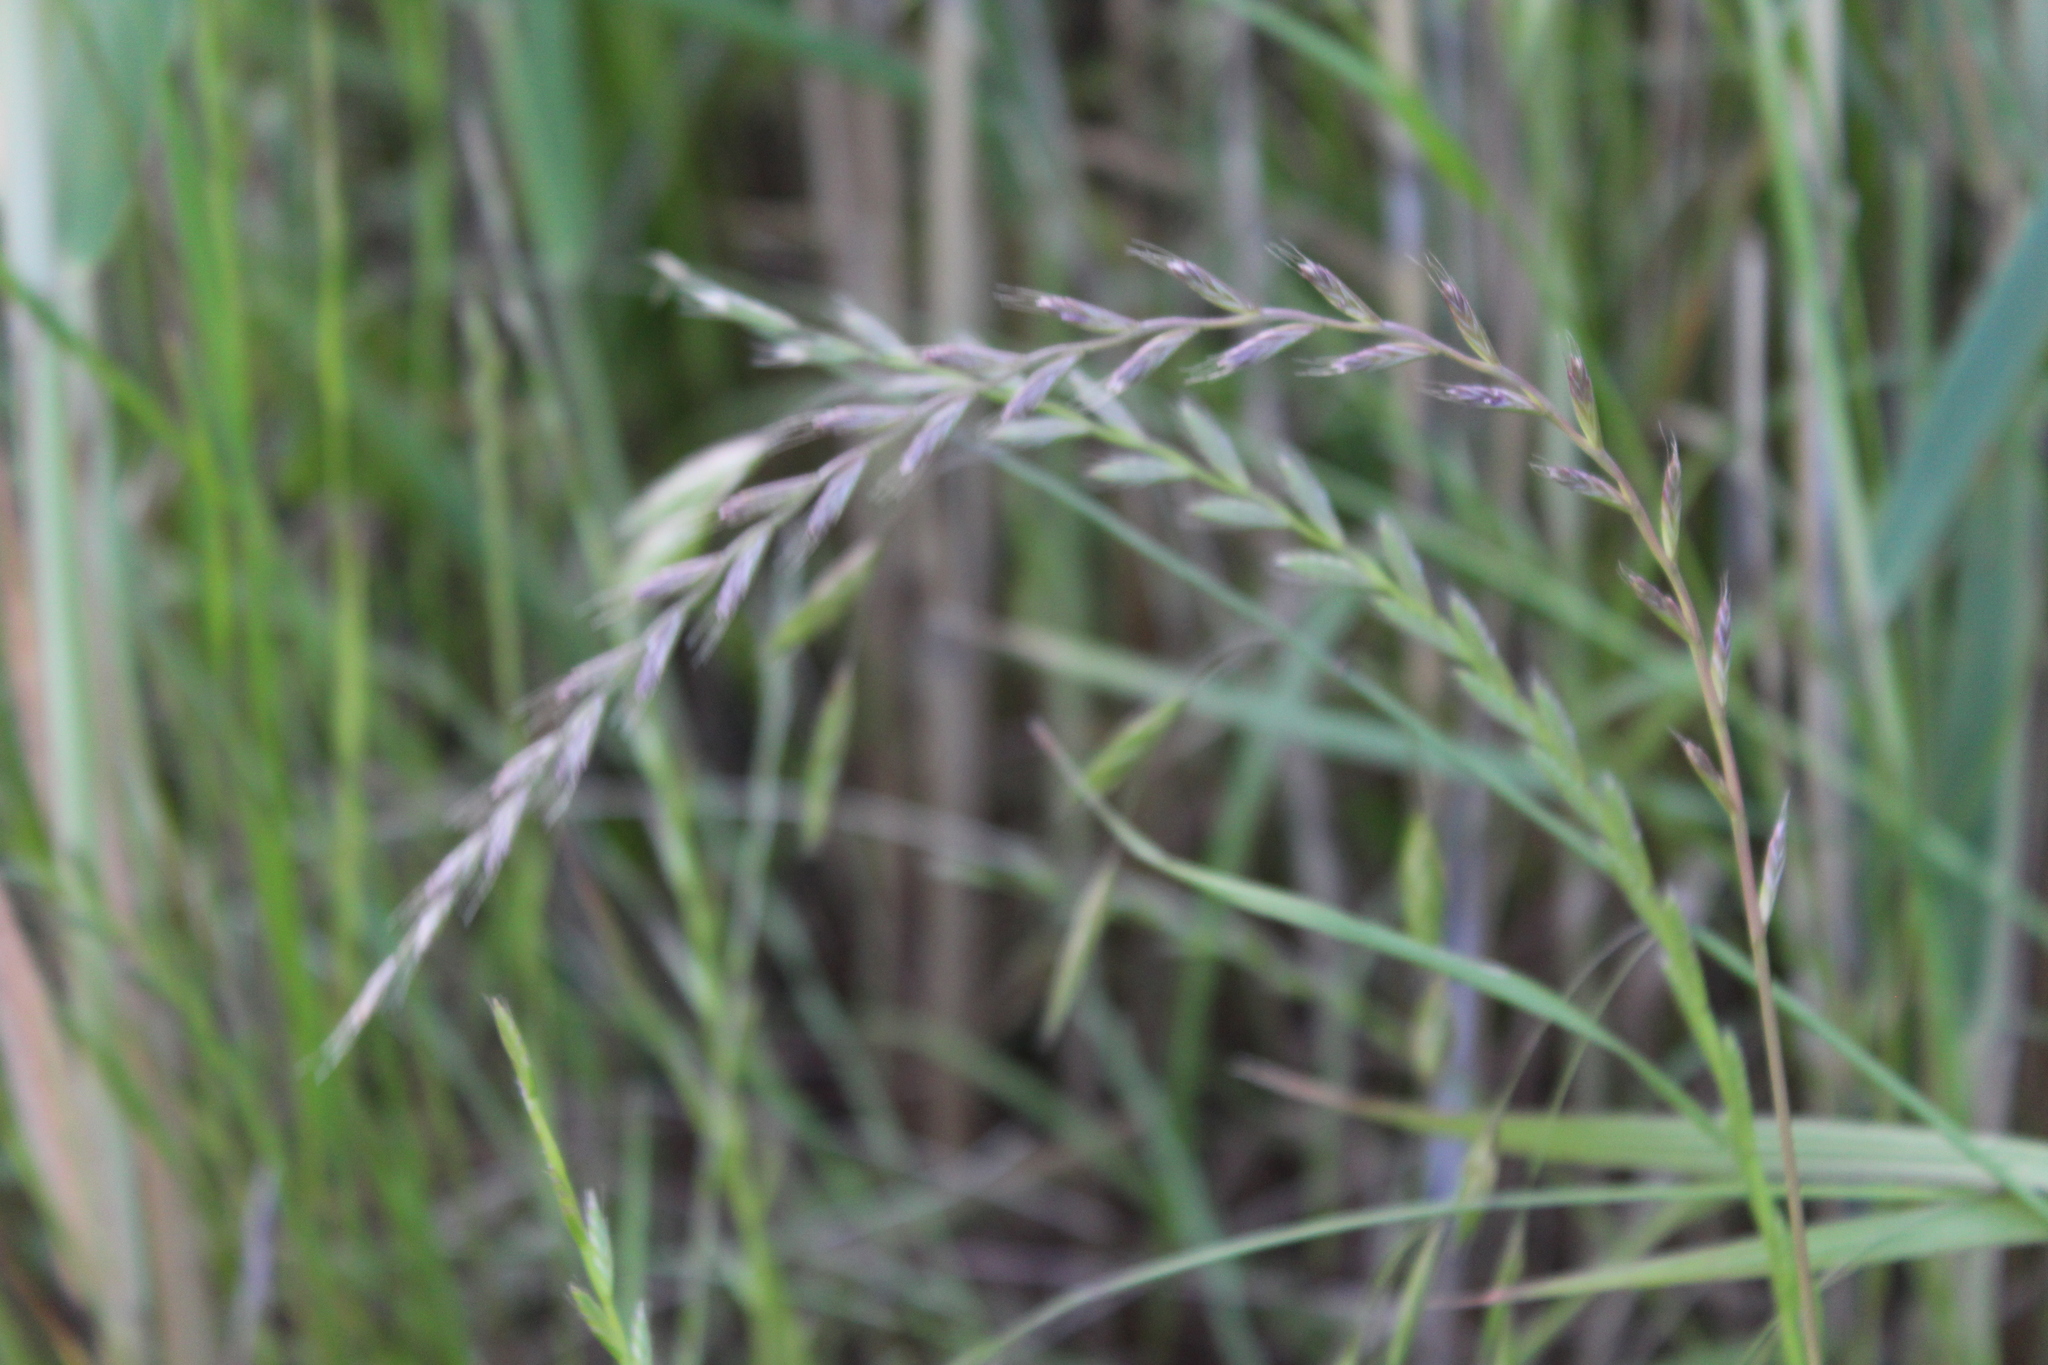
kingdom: Plantae
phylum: Tracheophyta
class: Liliopsida
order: Poales
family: Poaceae
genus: Lolium
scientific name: Lolium multiflorum
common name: Annual ryegrass
